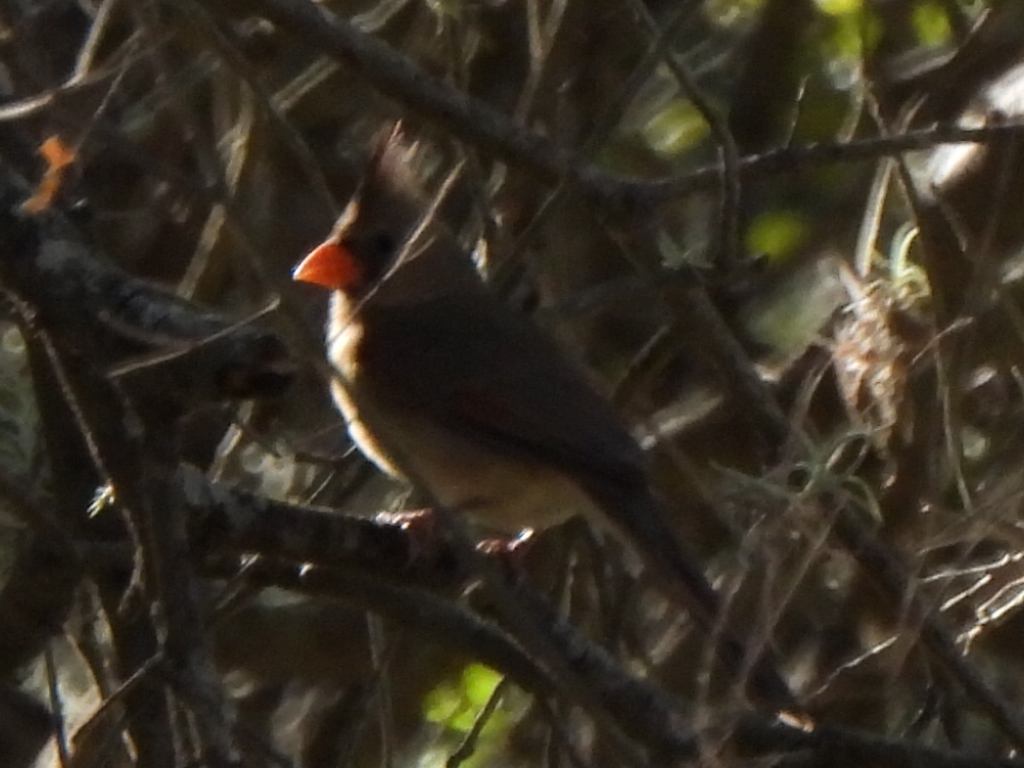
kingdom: Animalia
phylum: Chordata
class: Aves
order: Passeriformes
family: Cardinalidae
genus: Cardinalis
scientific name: Cardinalis cardinalis
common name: Northern cardinal
